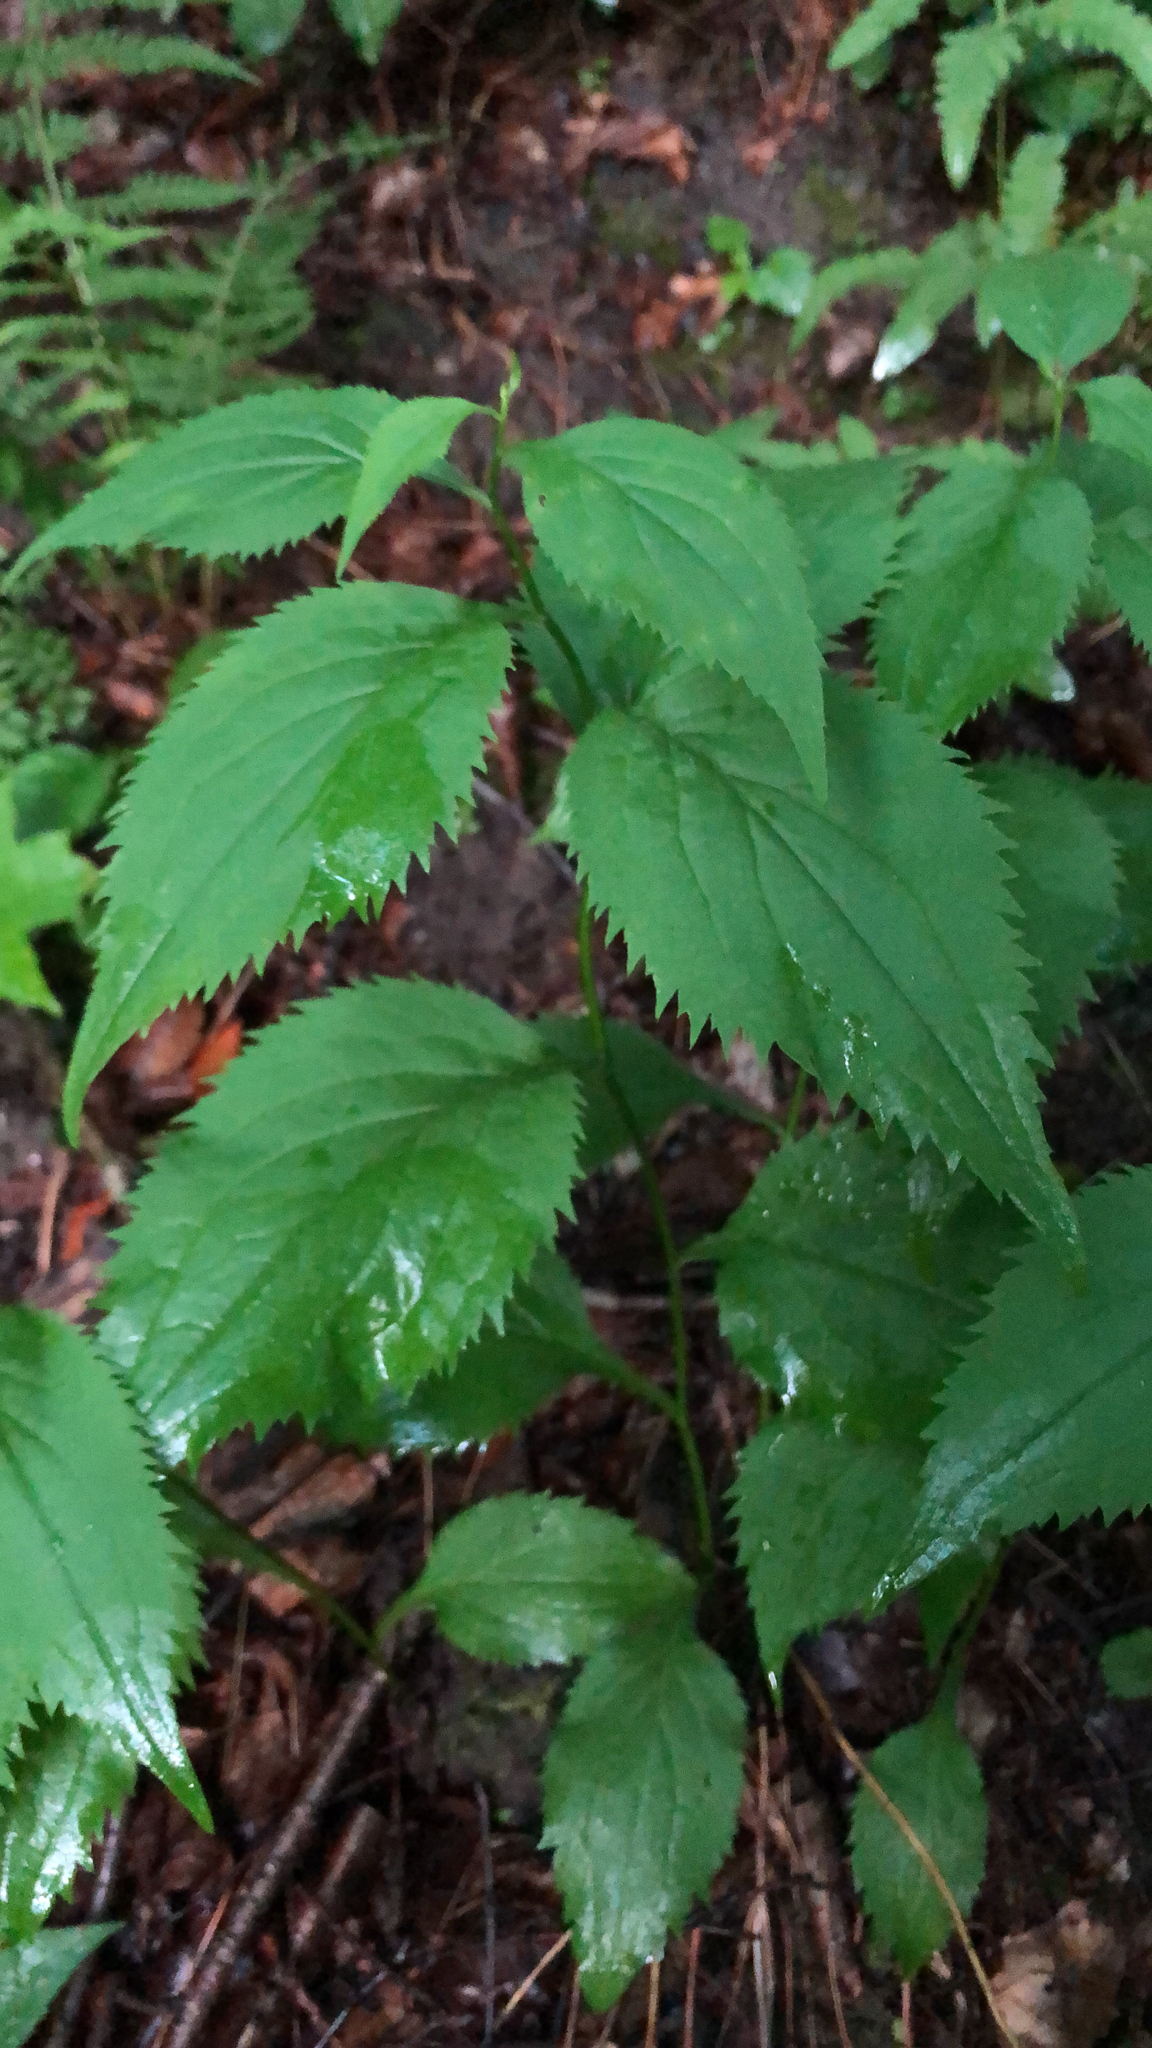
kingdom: Plantae
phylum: Tracheophyta
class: Magnoliopsida
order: Asterales
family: Asteraceae
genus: Solidago
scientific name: Solidago flexicaulis
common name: Zig-zag goldenrod
